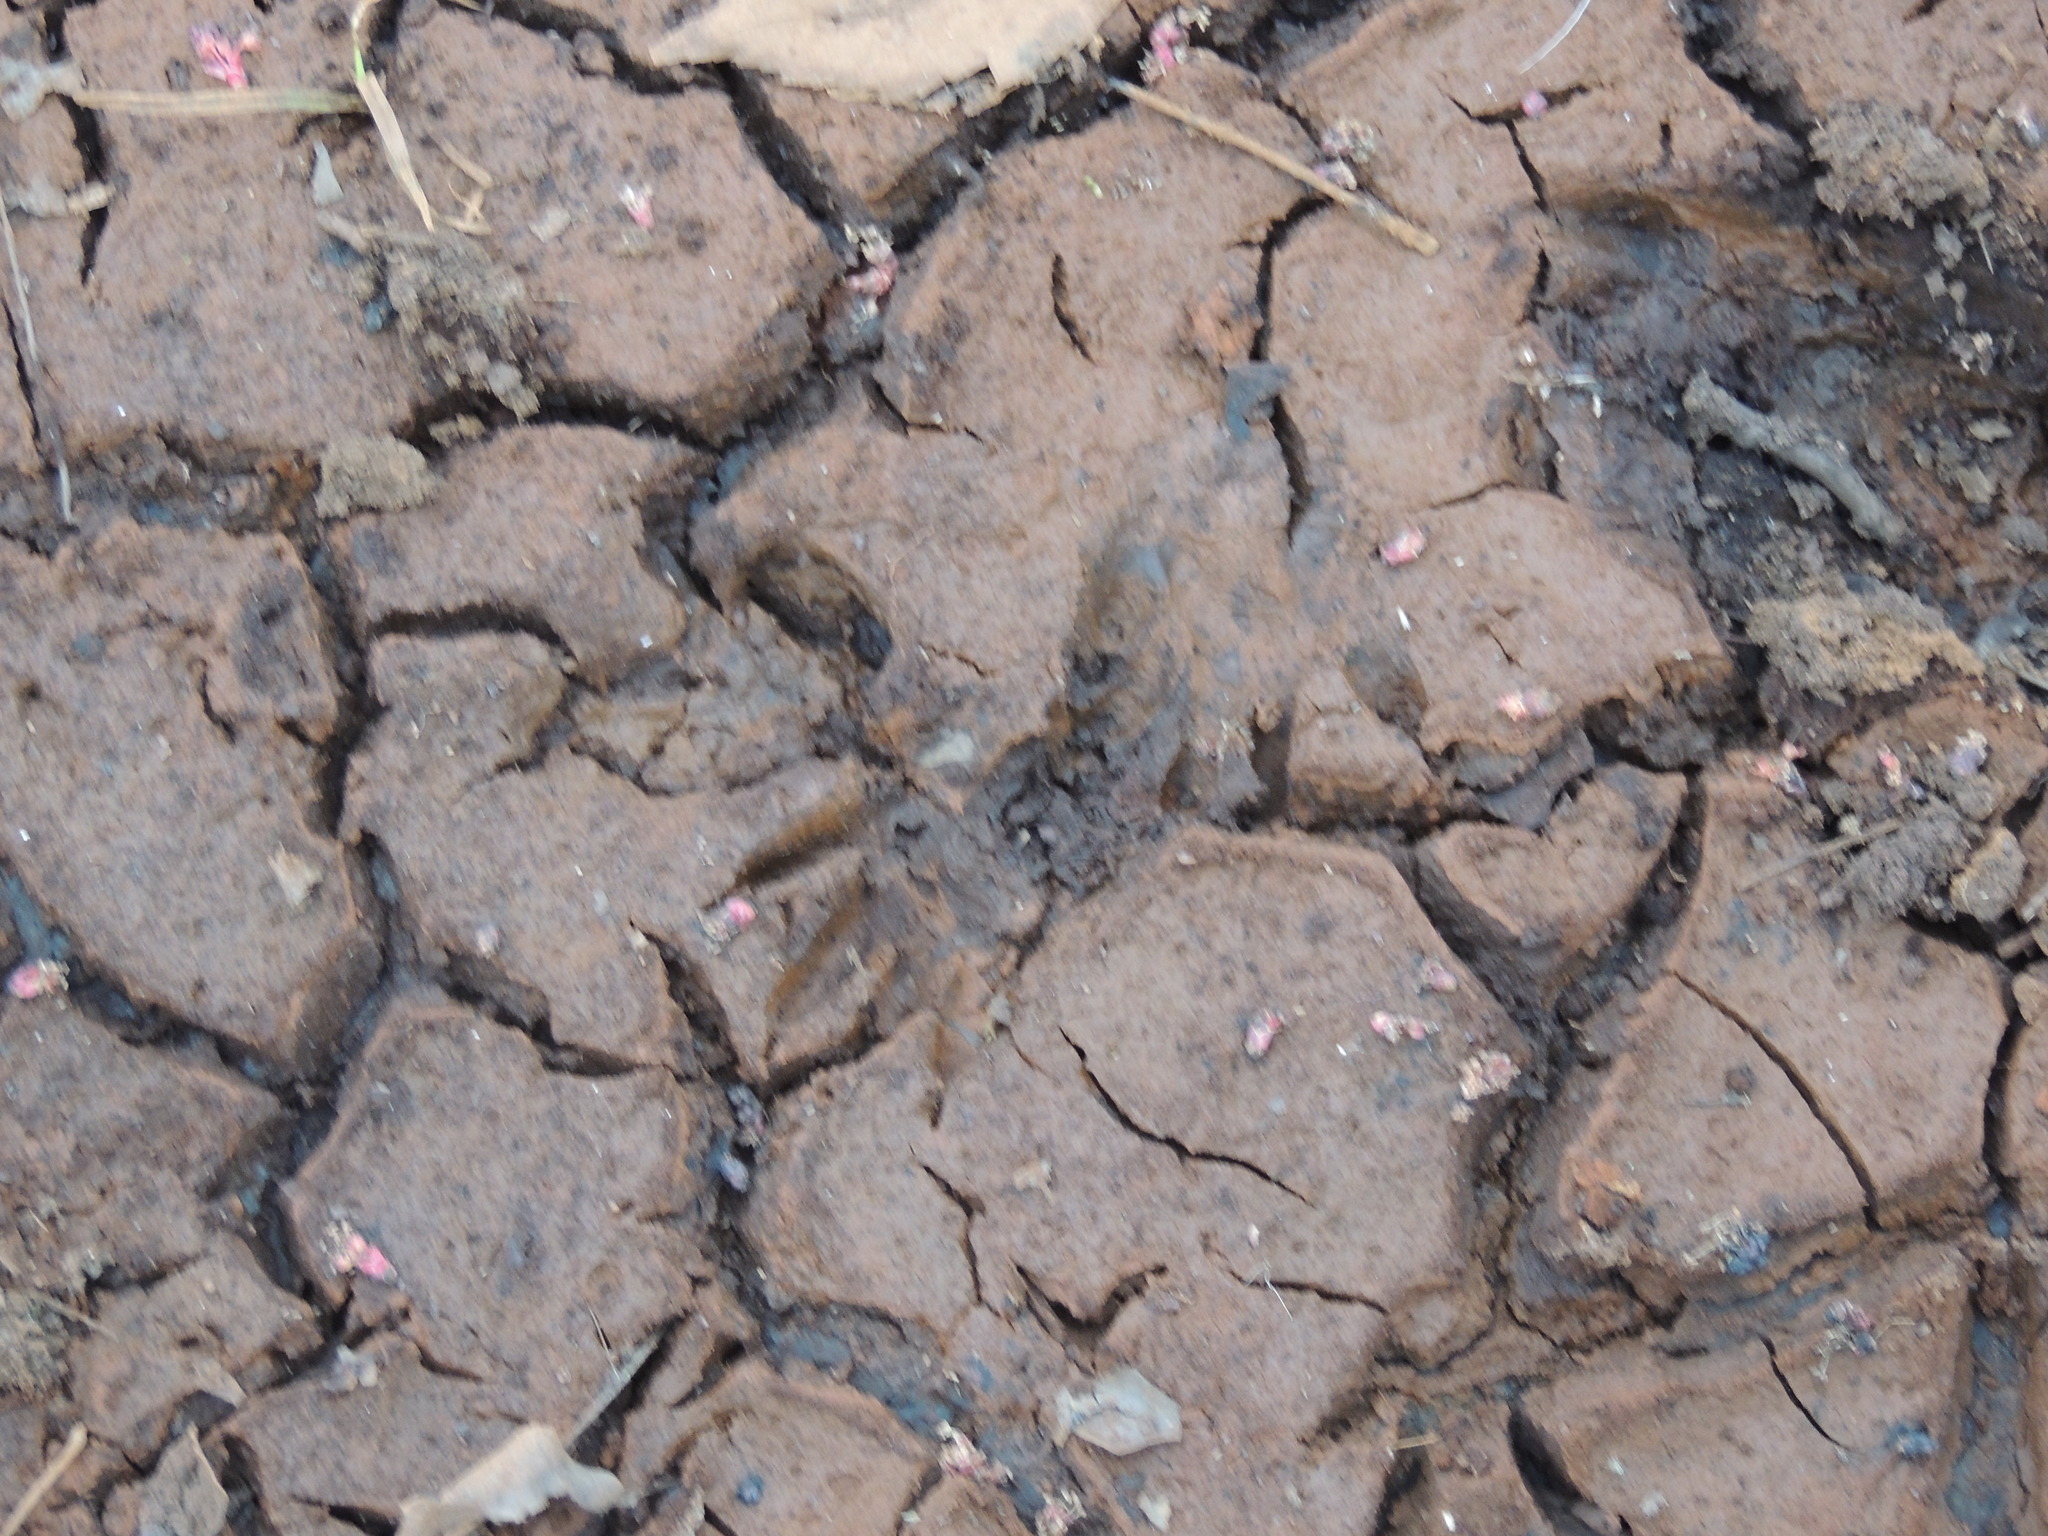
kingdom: Animalia
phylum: Chordata
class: Mammalia
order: Carnivora
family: Procyonidae
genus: Procyon
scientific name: Procyon lotor
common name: Raccoon
